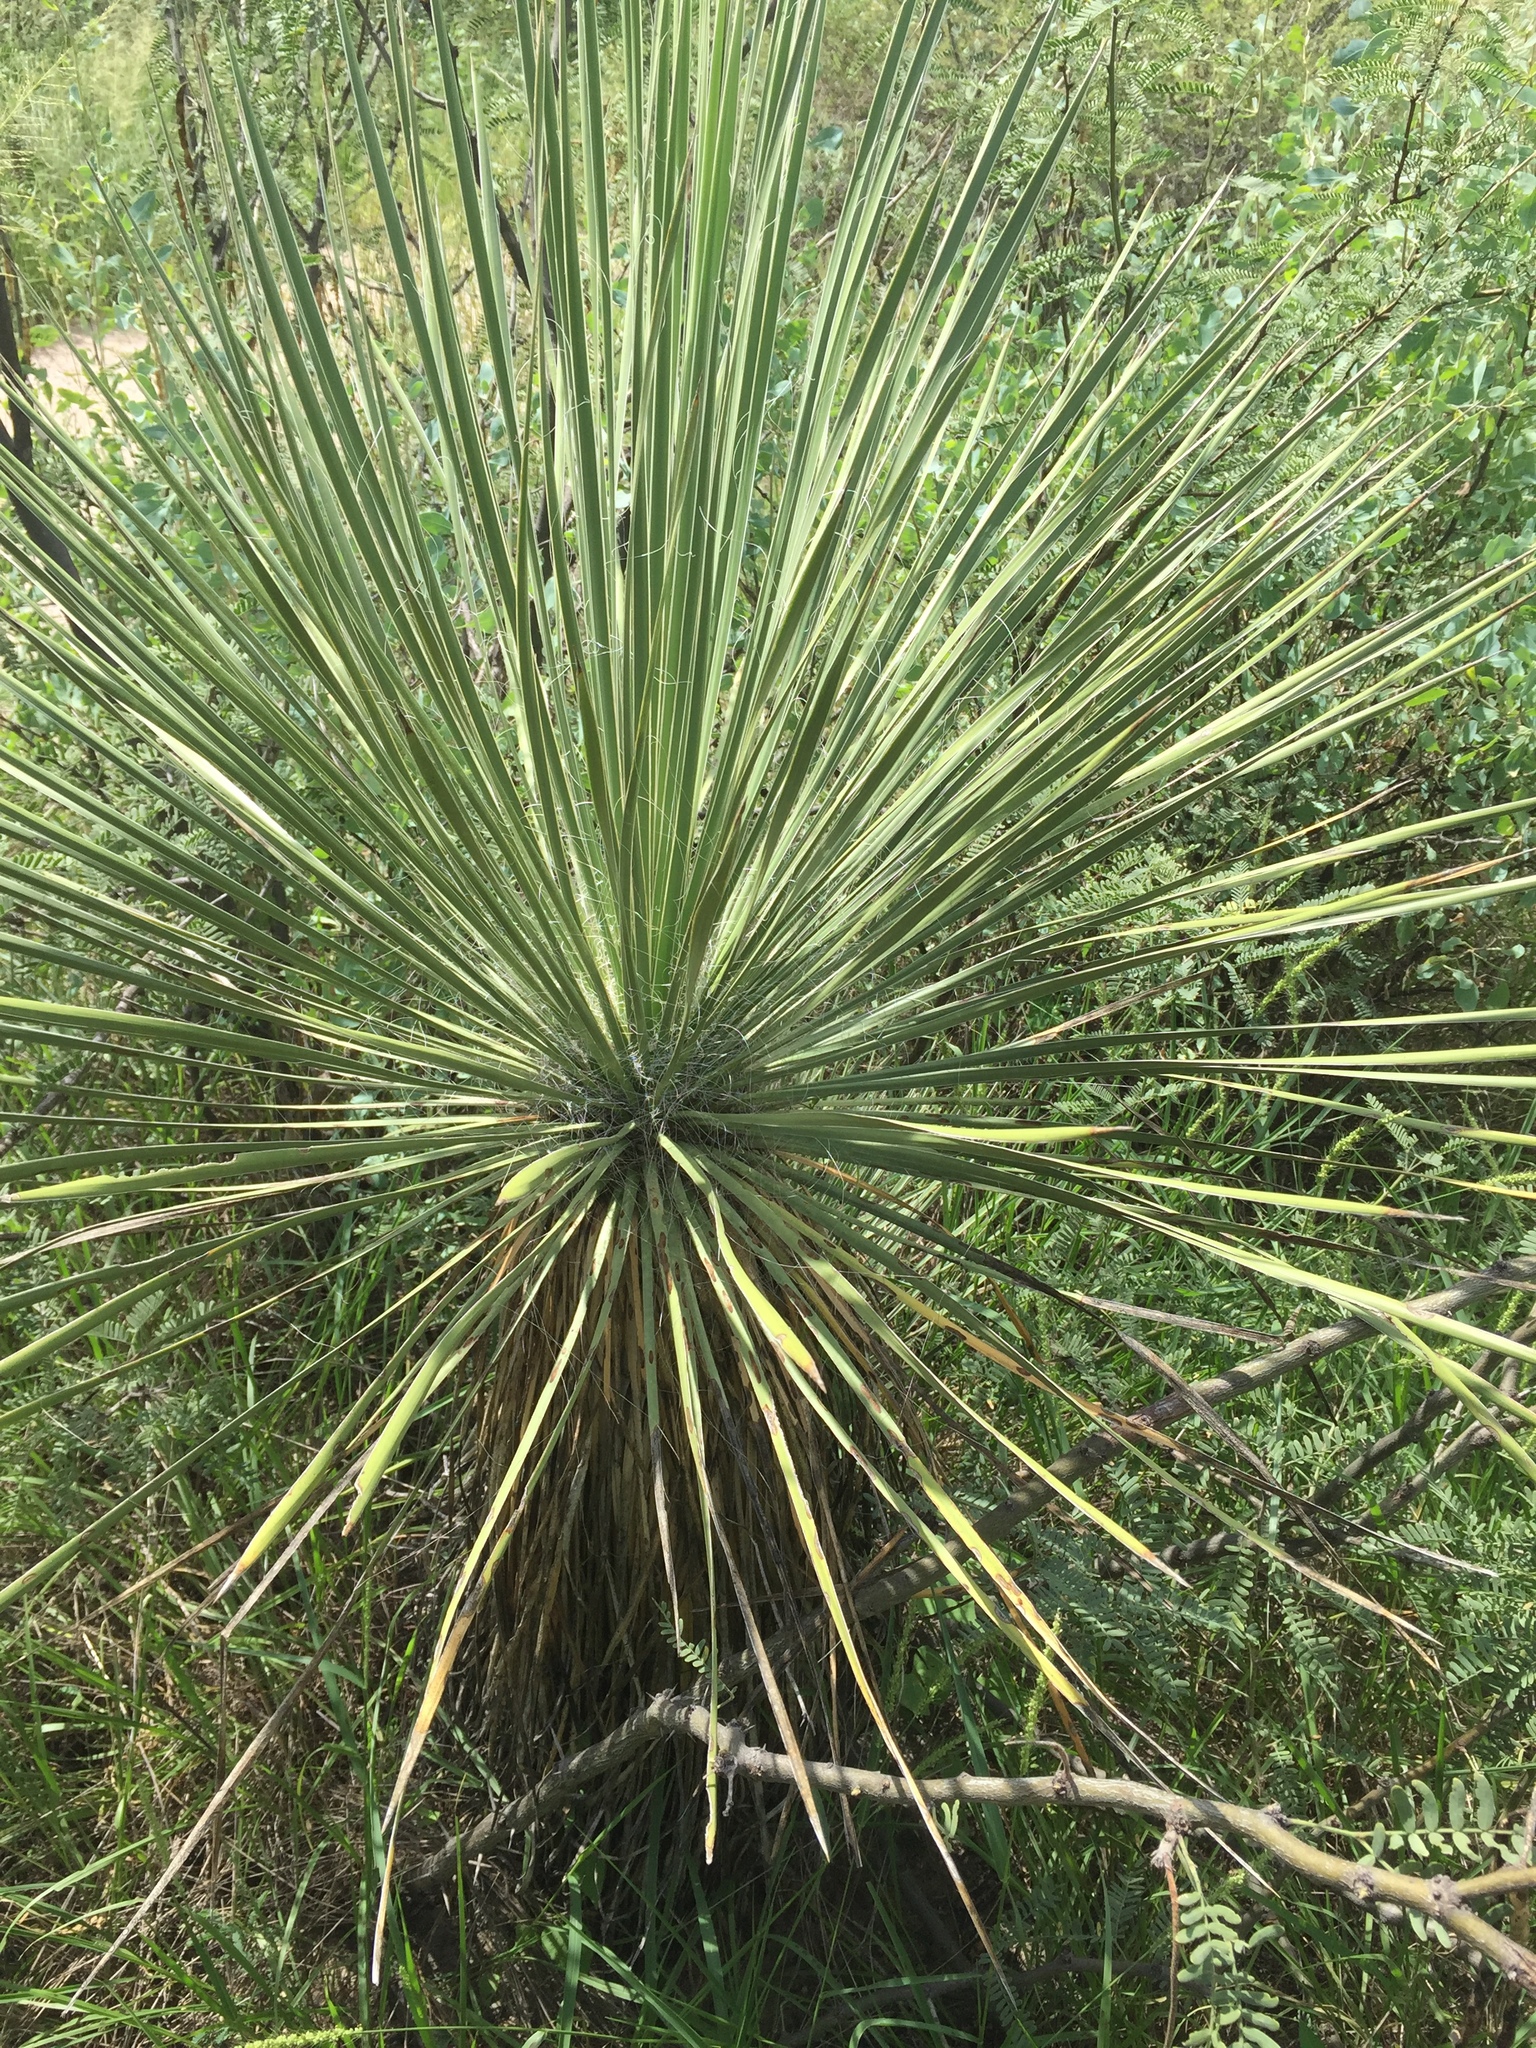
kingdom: Plantae
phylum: Tracheophyta
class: Liliopsida
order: Asparagales
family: Asparagaceae
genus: Yucca
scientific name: Yucca elata
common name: Palmella
